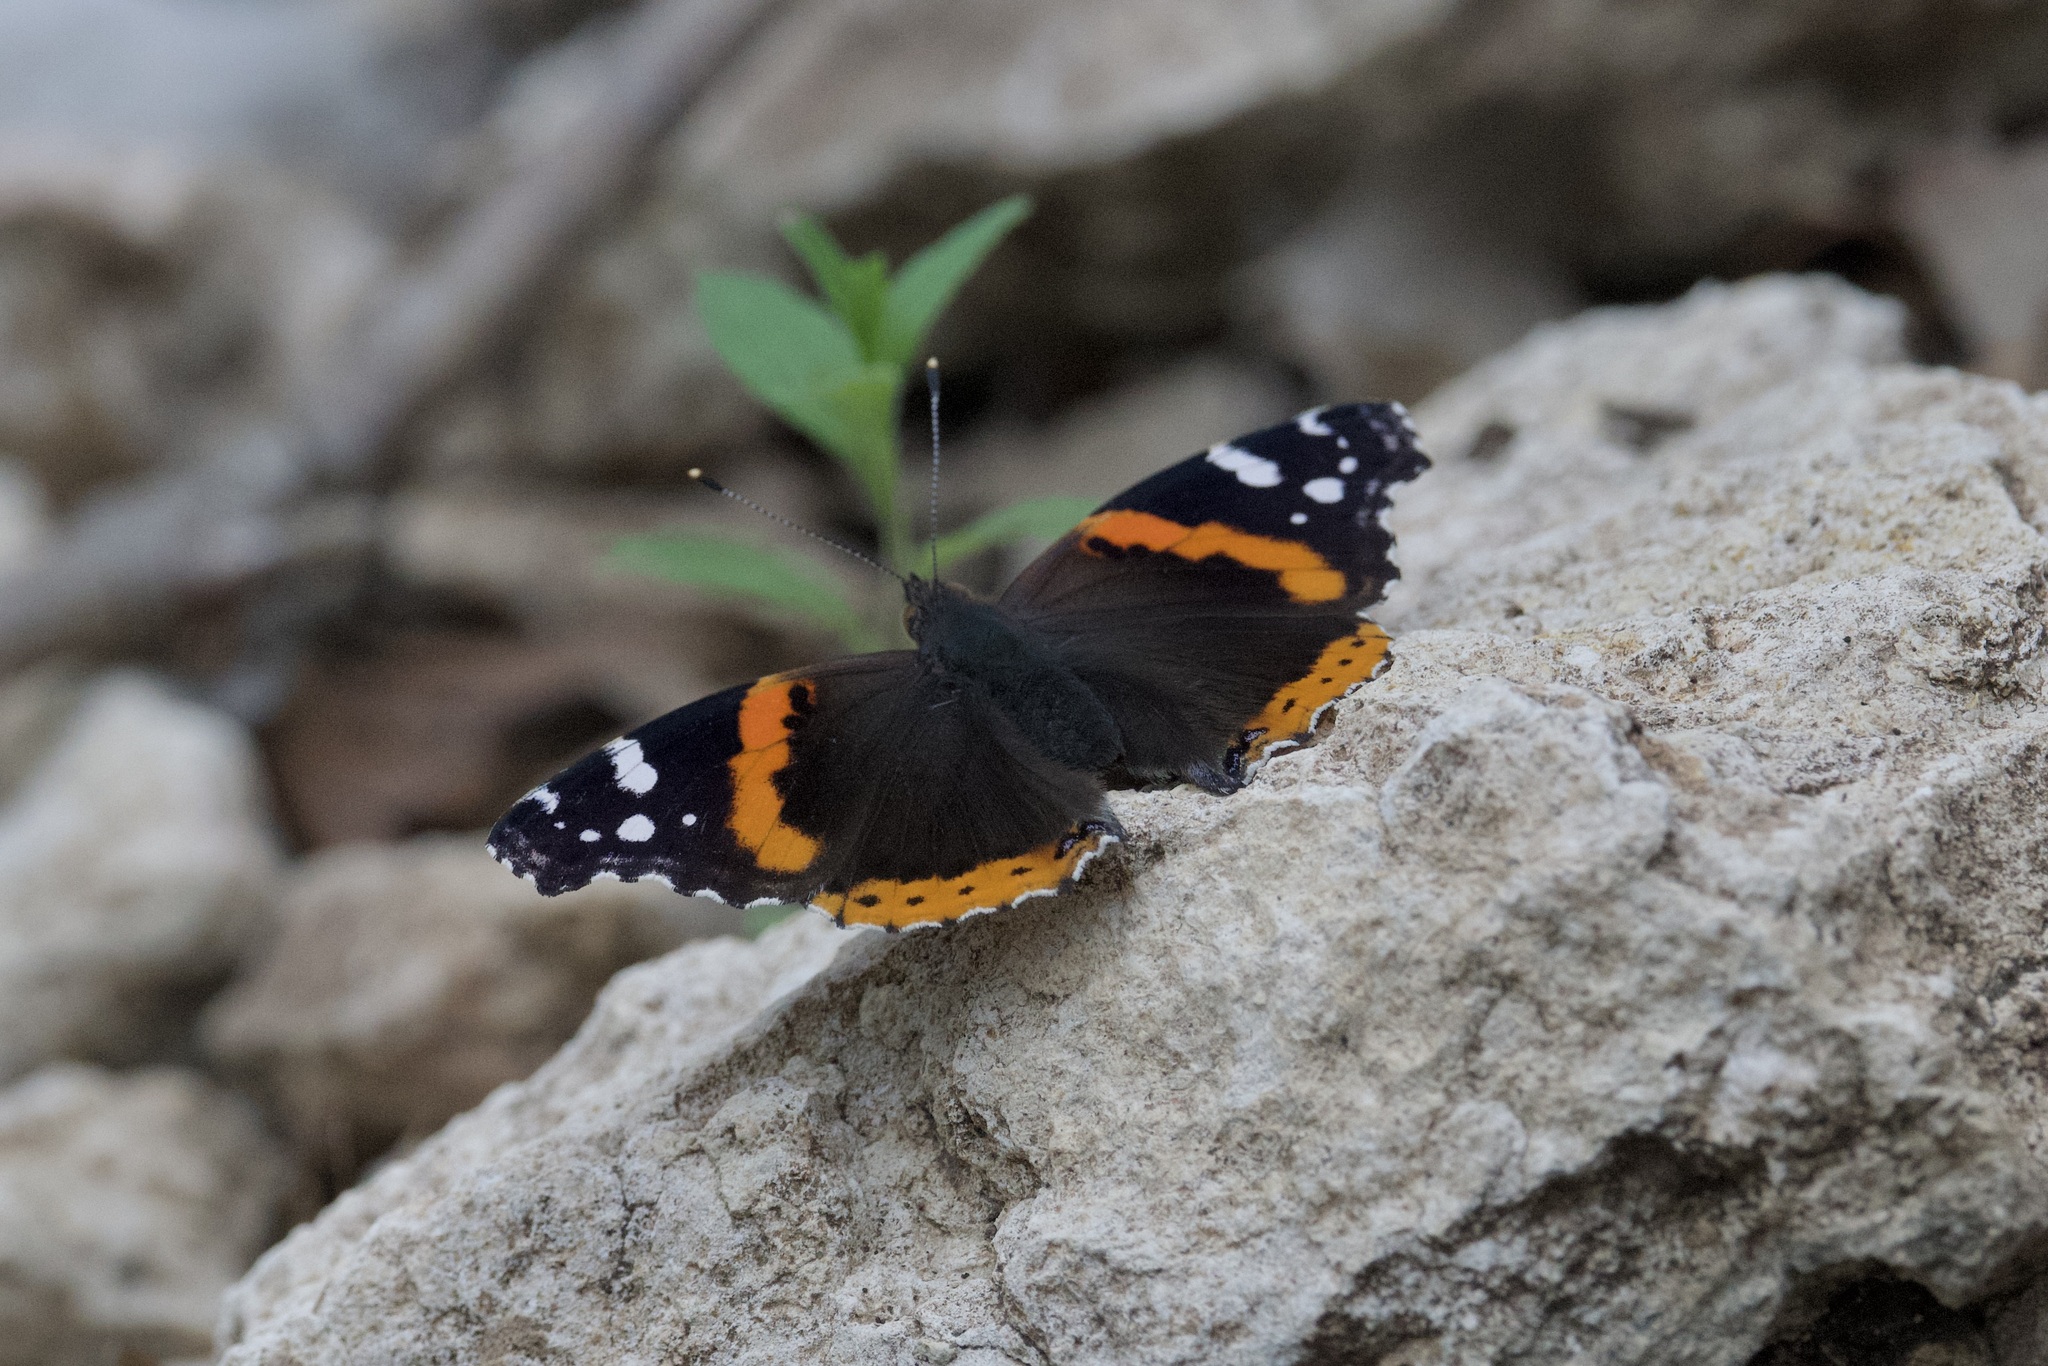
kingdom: Animalia
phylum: Arthropoda
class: Insecta
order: Lepidoptera
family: Nymphalidae
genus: Vanessa
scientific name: Vanessa atalanta
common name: Red admiral
